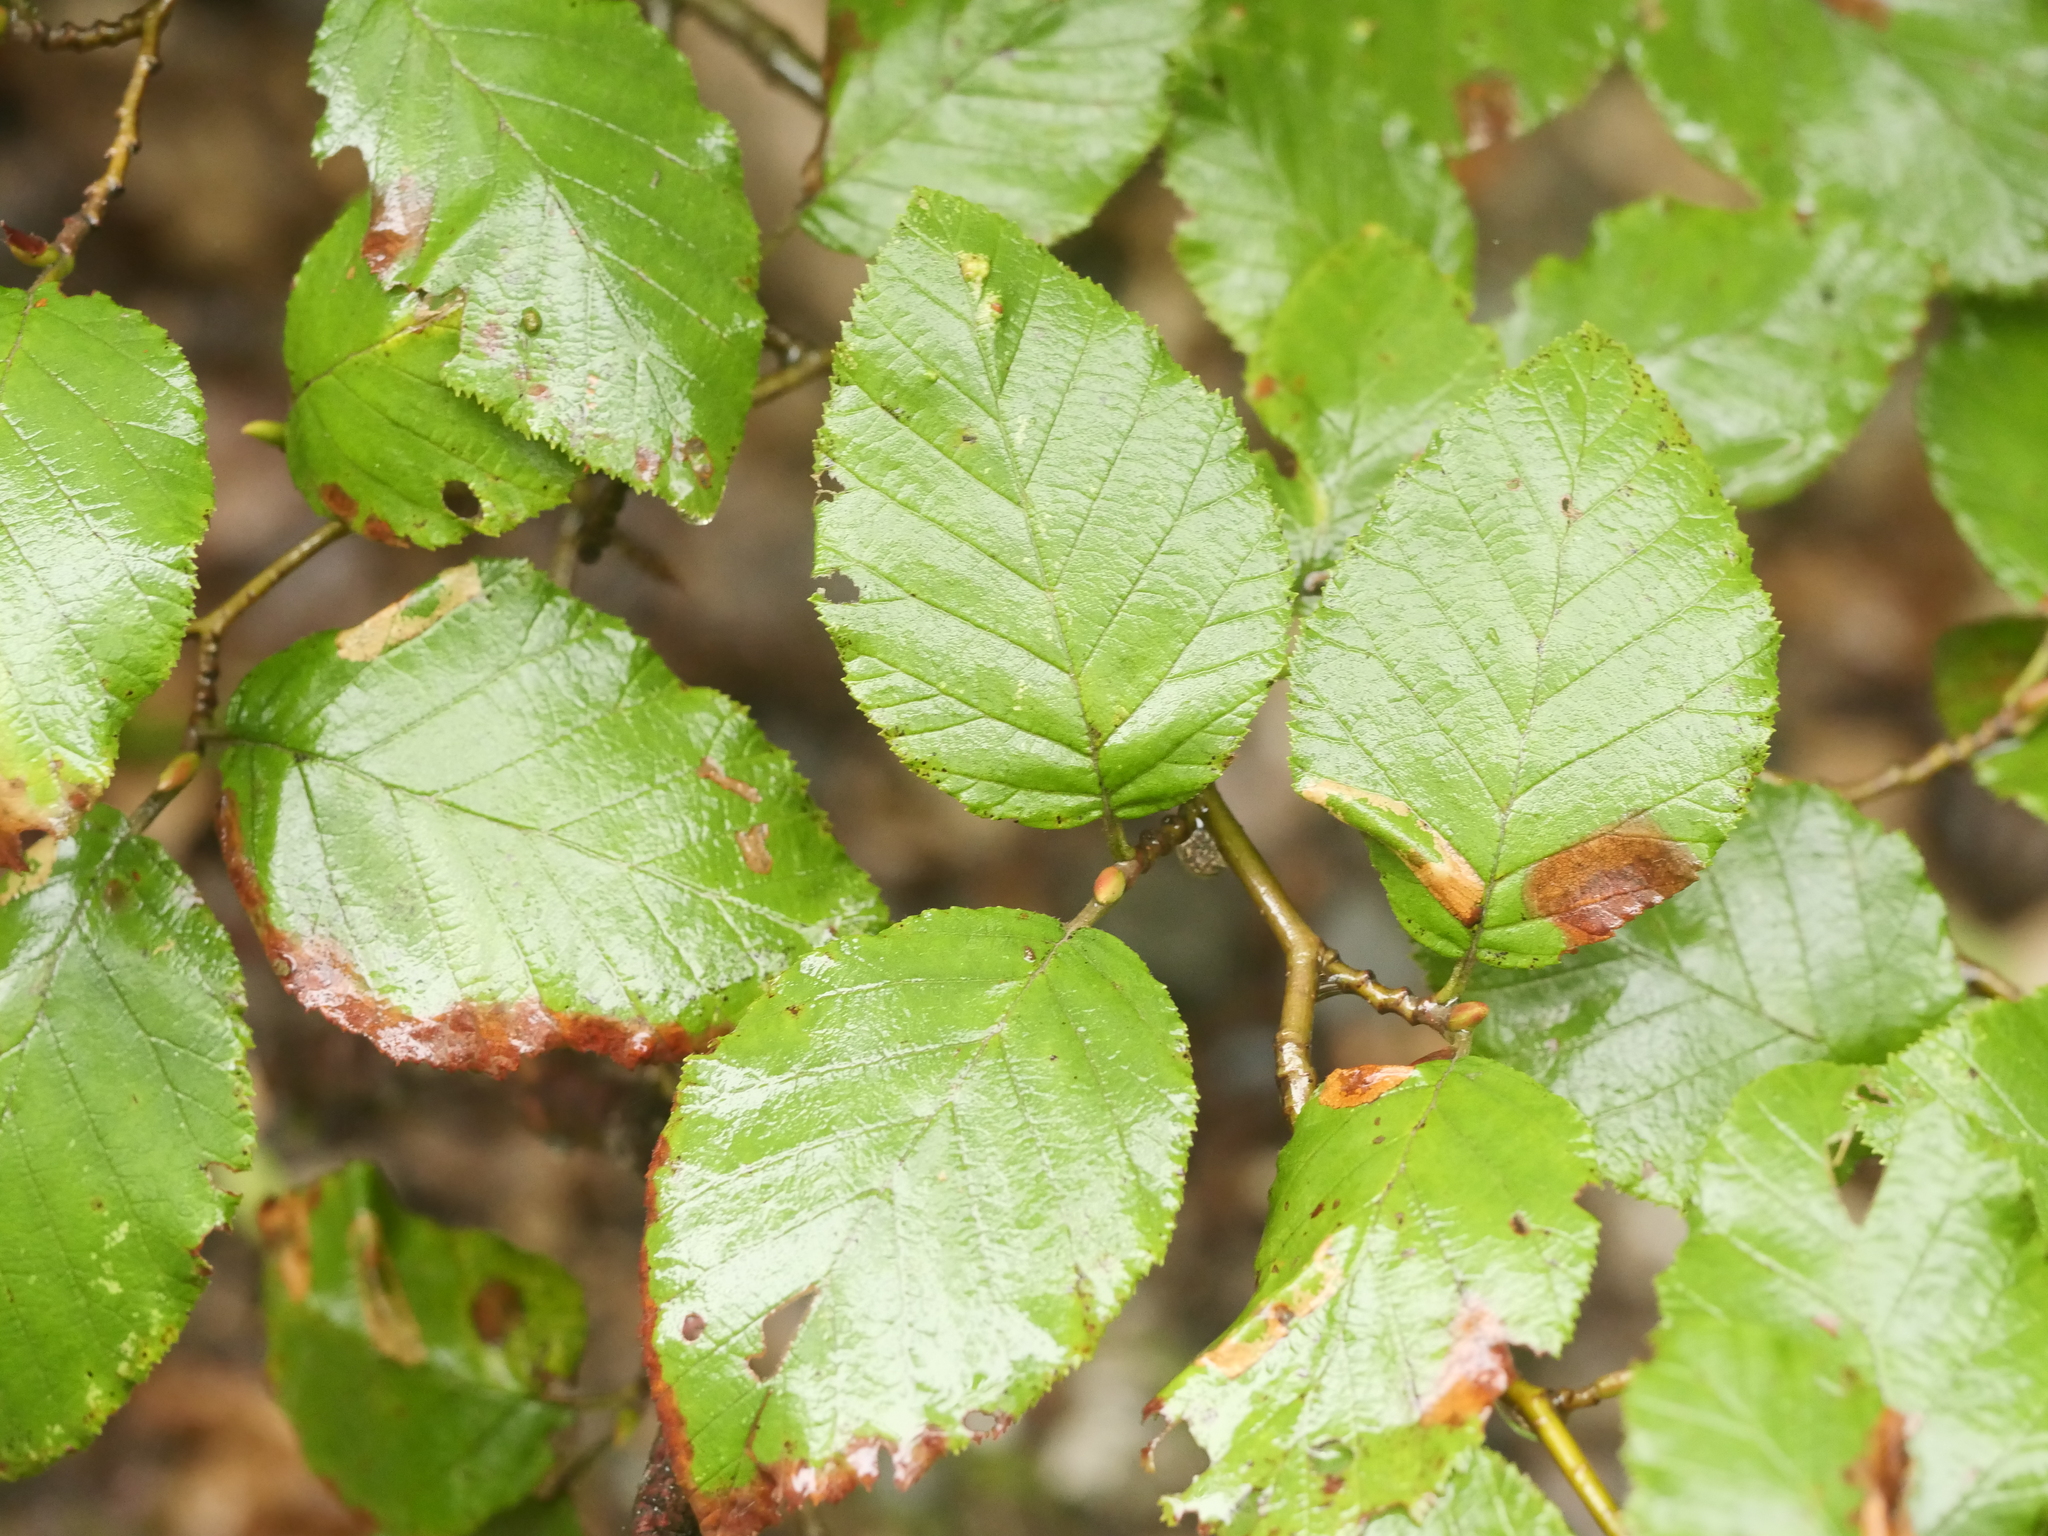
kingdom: Plantae
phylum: Tracheophyta
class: Magnoliopsida
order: Fagales
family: Betulaceae
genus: Alnus
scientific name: Alnus alnobetula
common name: Green alder
